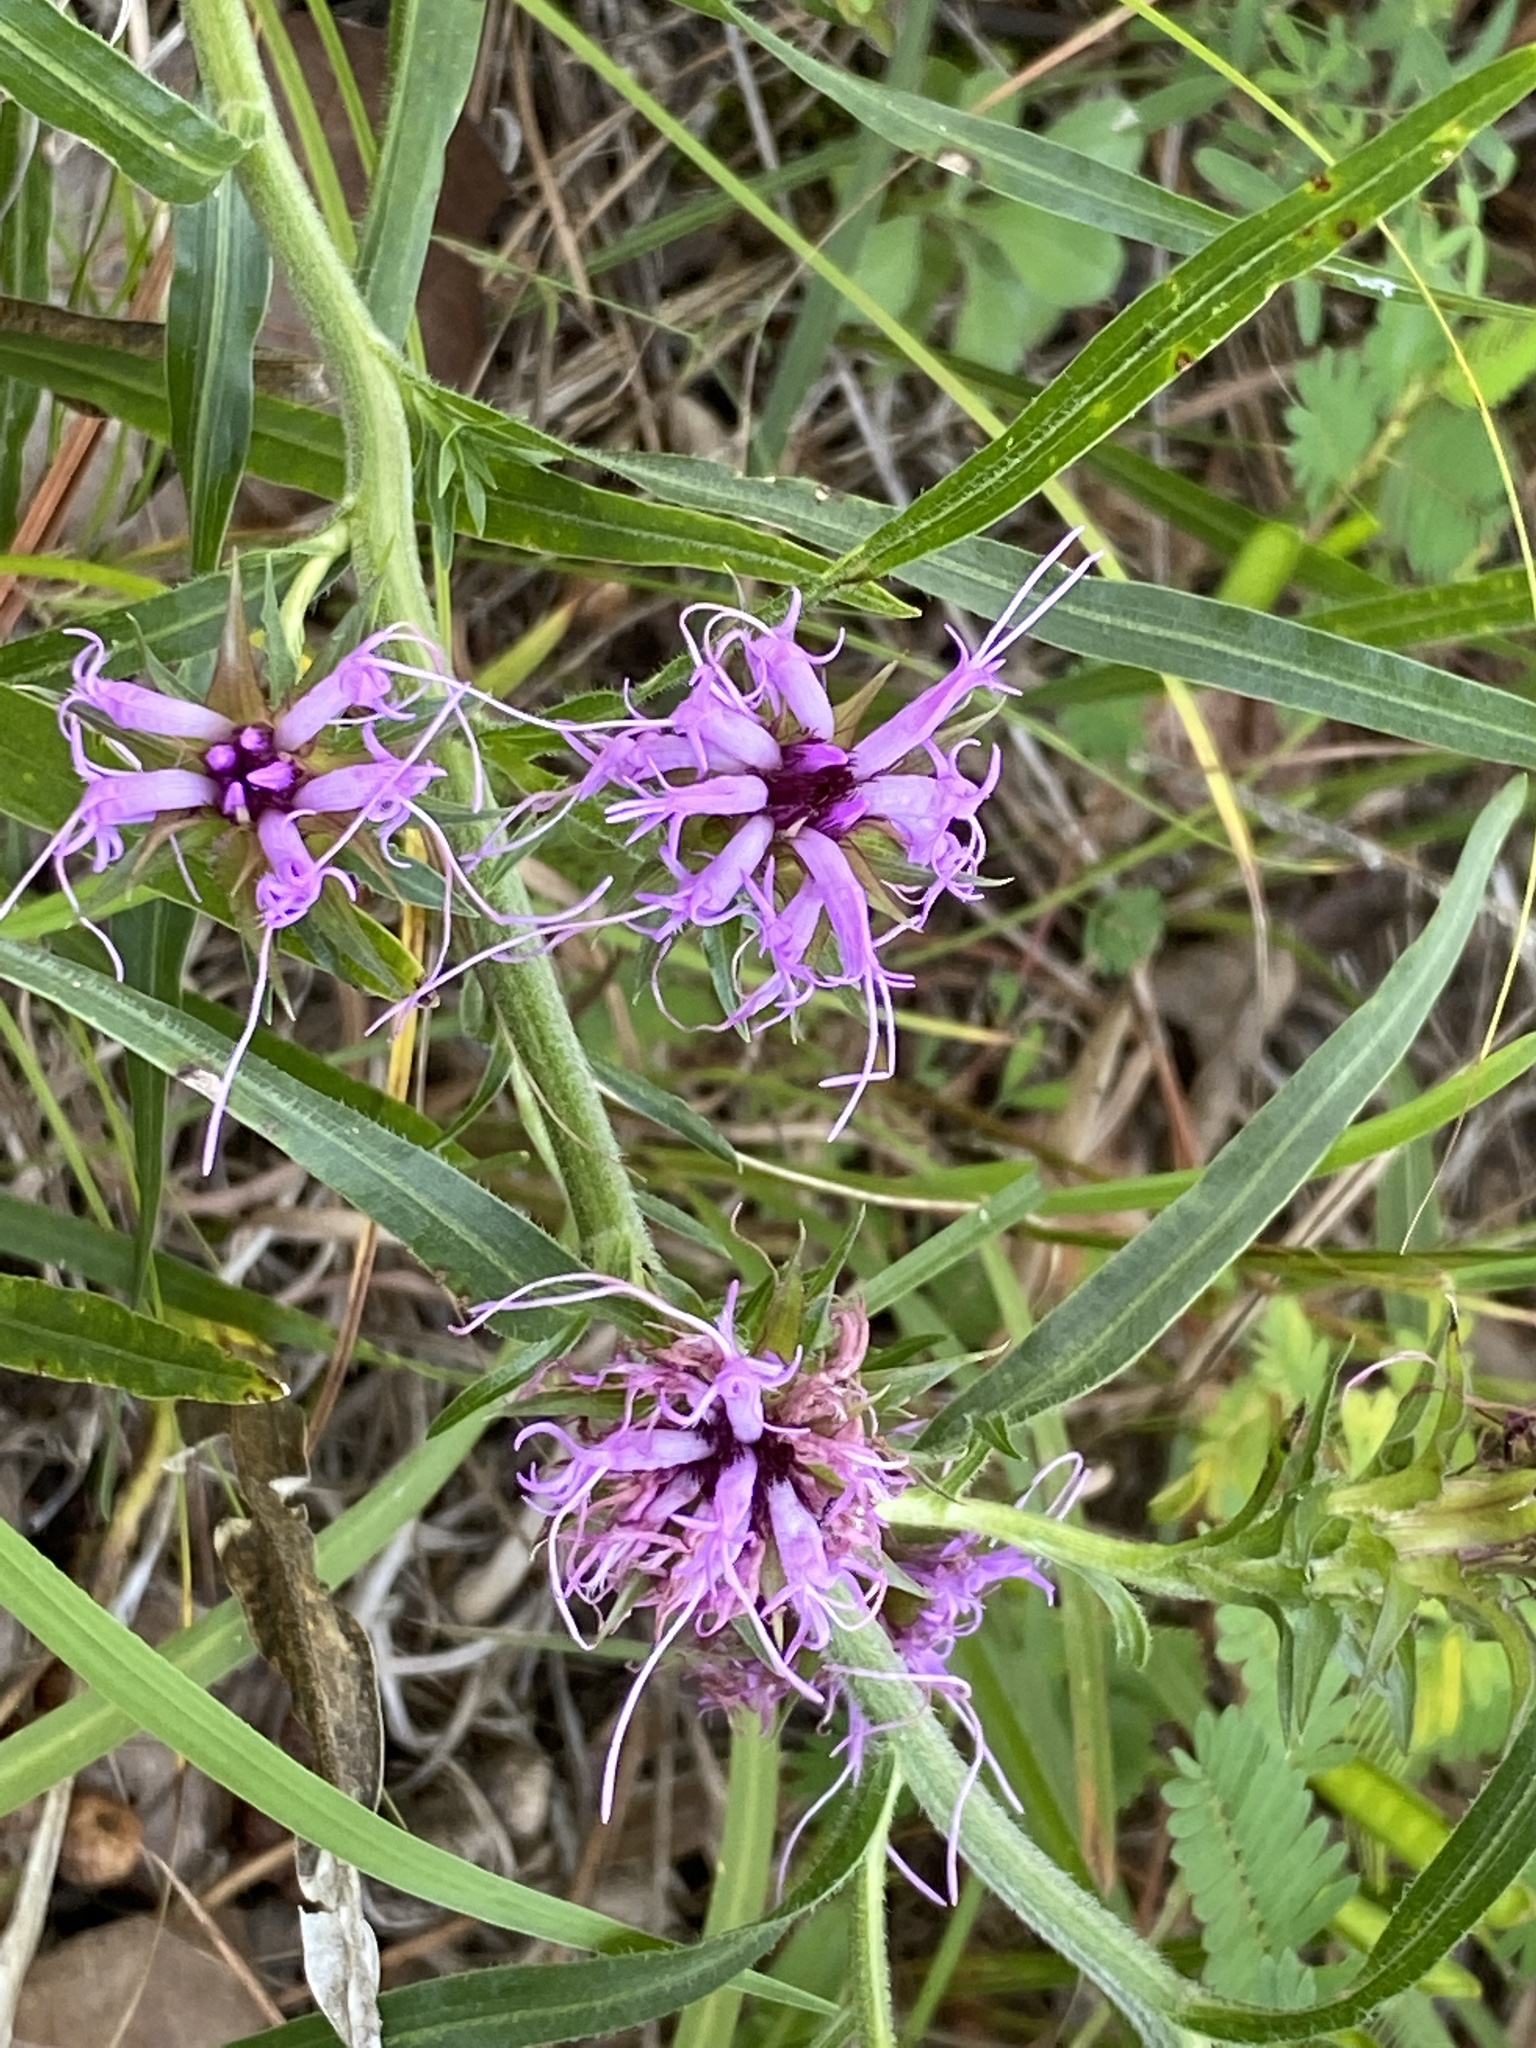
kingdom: Plantae
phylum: Tracheophyta
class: Magnoliopsida
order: Asterales
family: Asteraceae
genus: Liatris
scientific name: Liatris squarrosa
